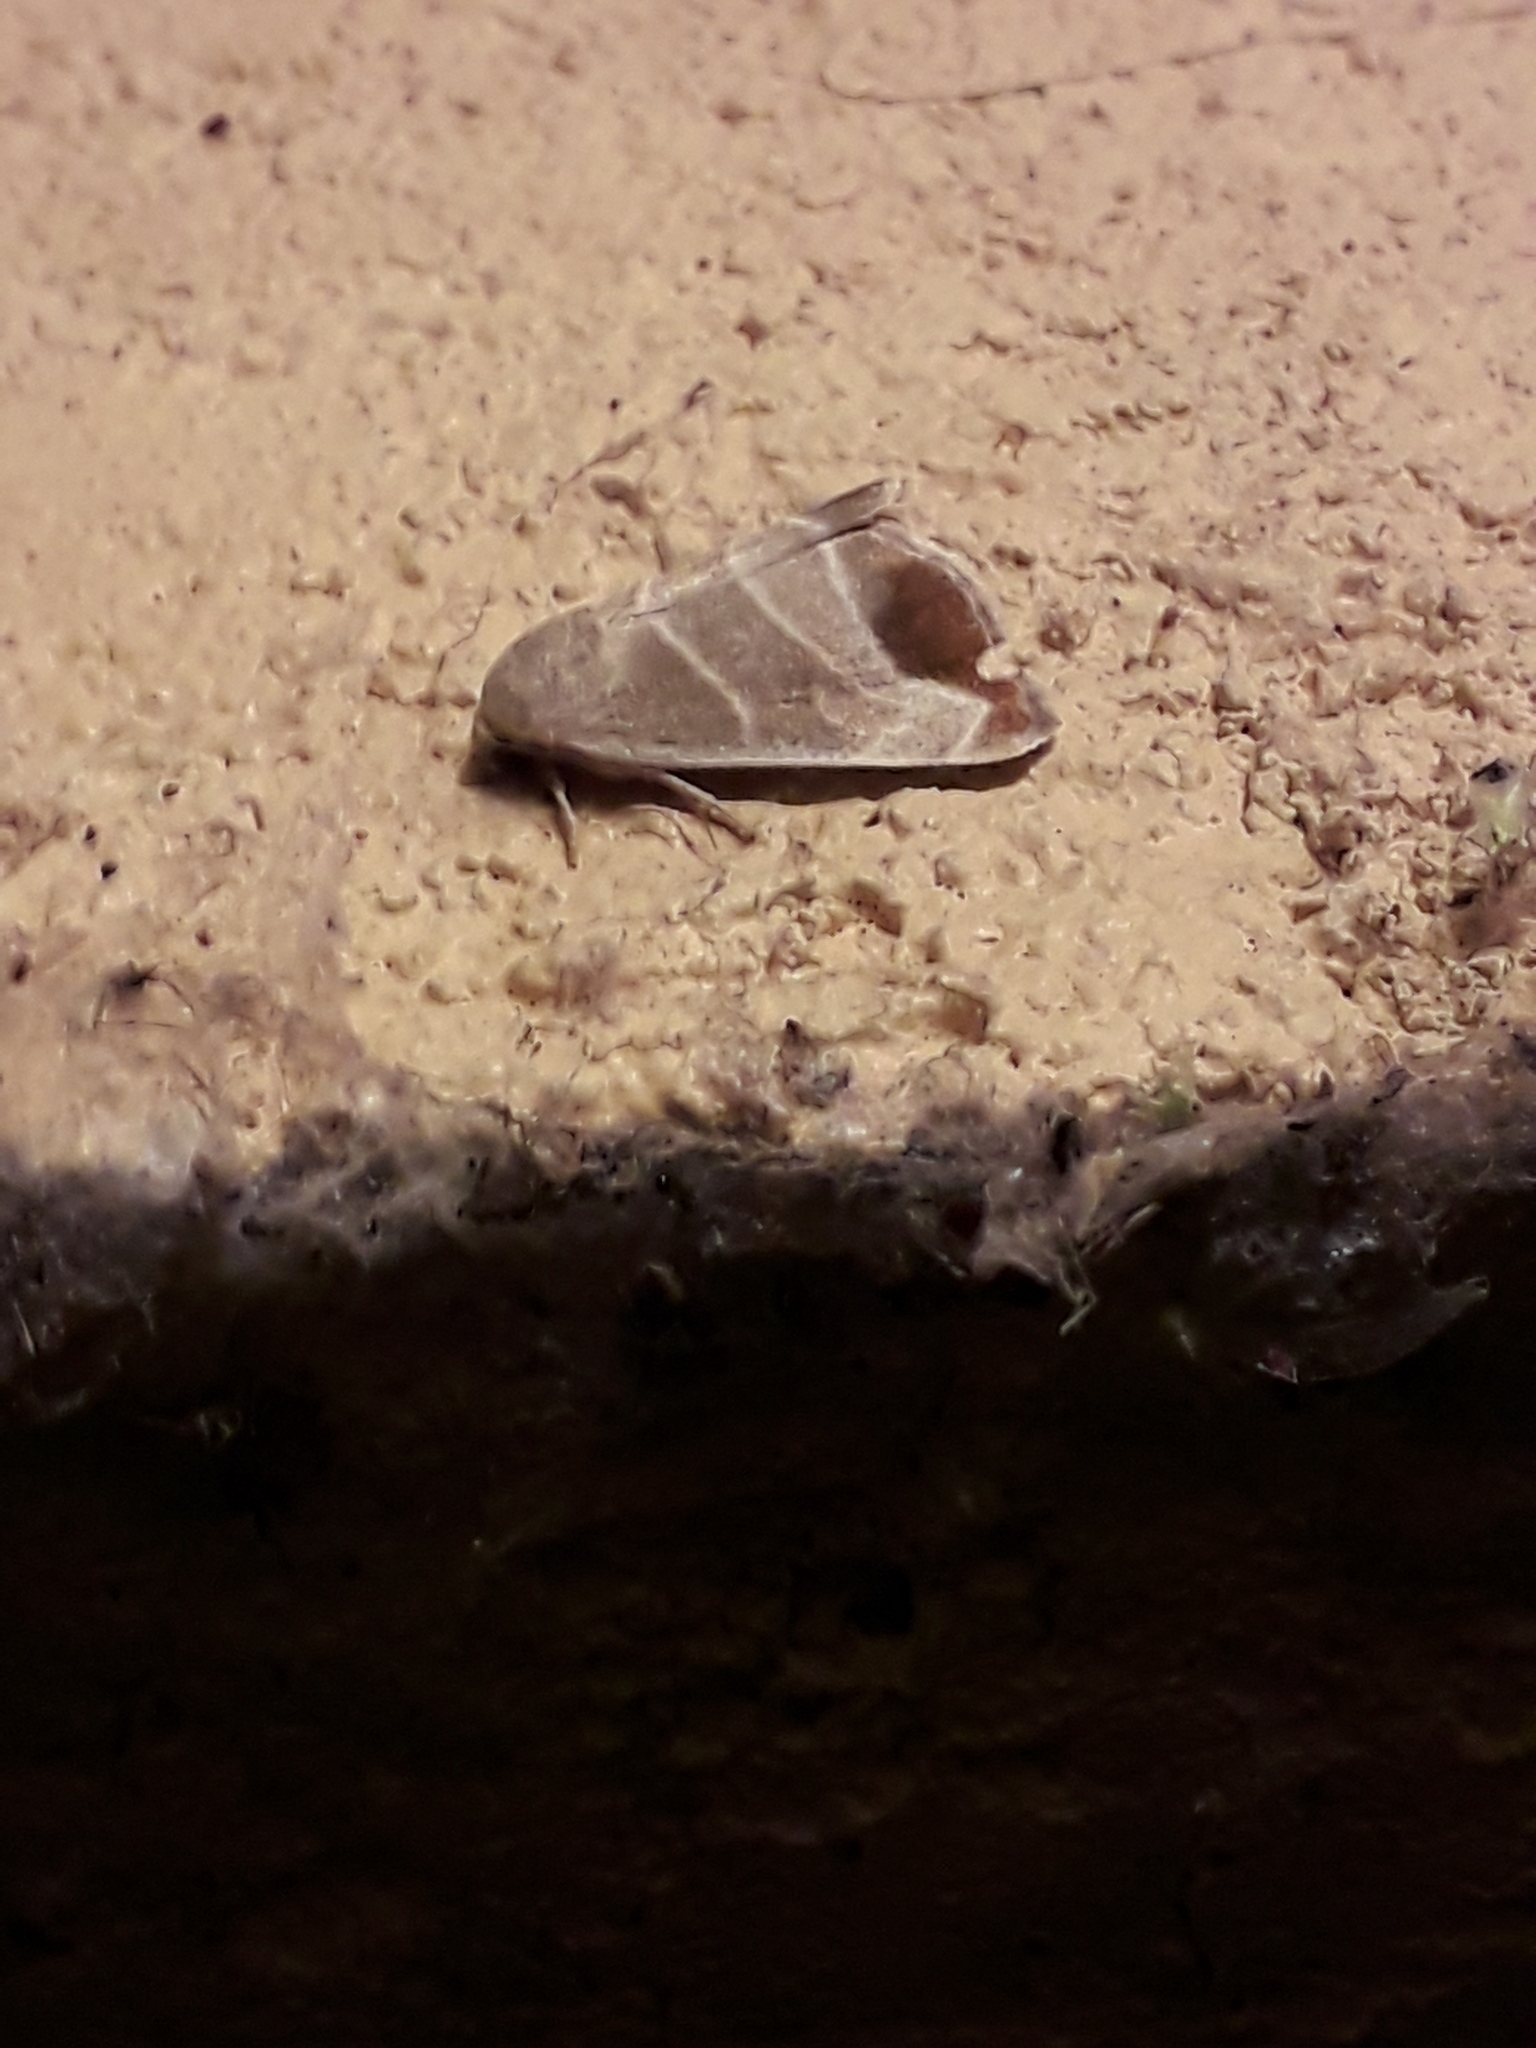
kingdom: Animalia
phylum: Arthropoda
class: Insecta
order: Lepidoptera
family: Noctuidae
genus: Bagisara
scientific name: Bagisara praecelsa
